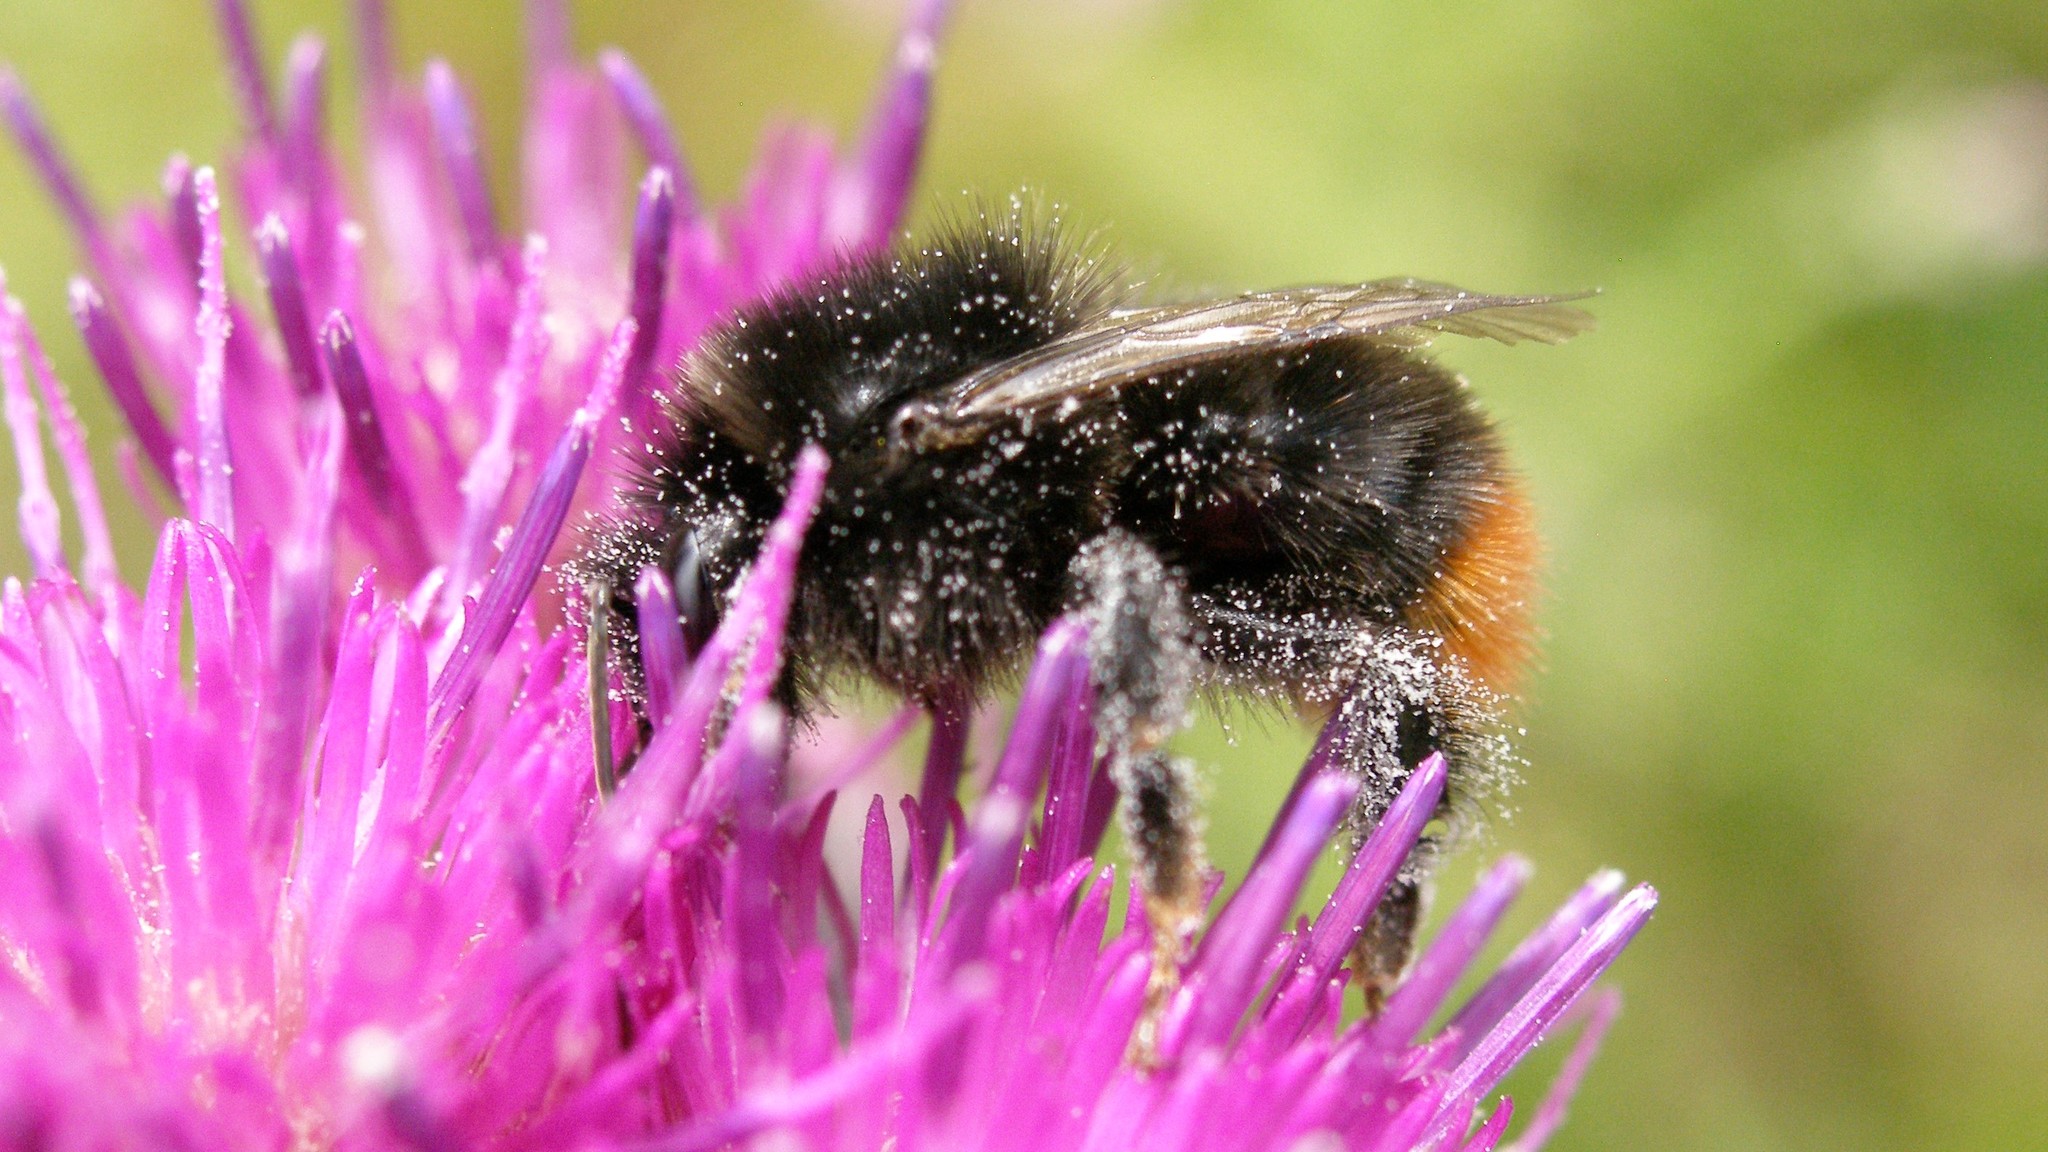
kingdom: Animalia
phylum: Arthropoda
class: Insecta
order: Hymenoptera
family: Apidae
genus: Bombus
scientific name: Bombus lapidarius
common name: Large red-tailed humble-bee
